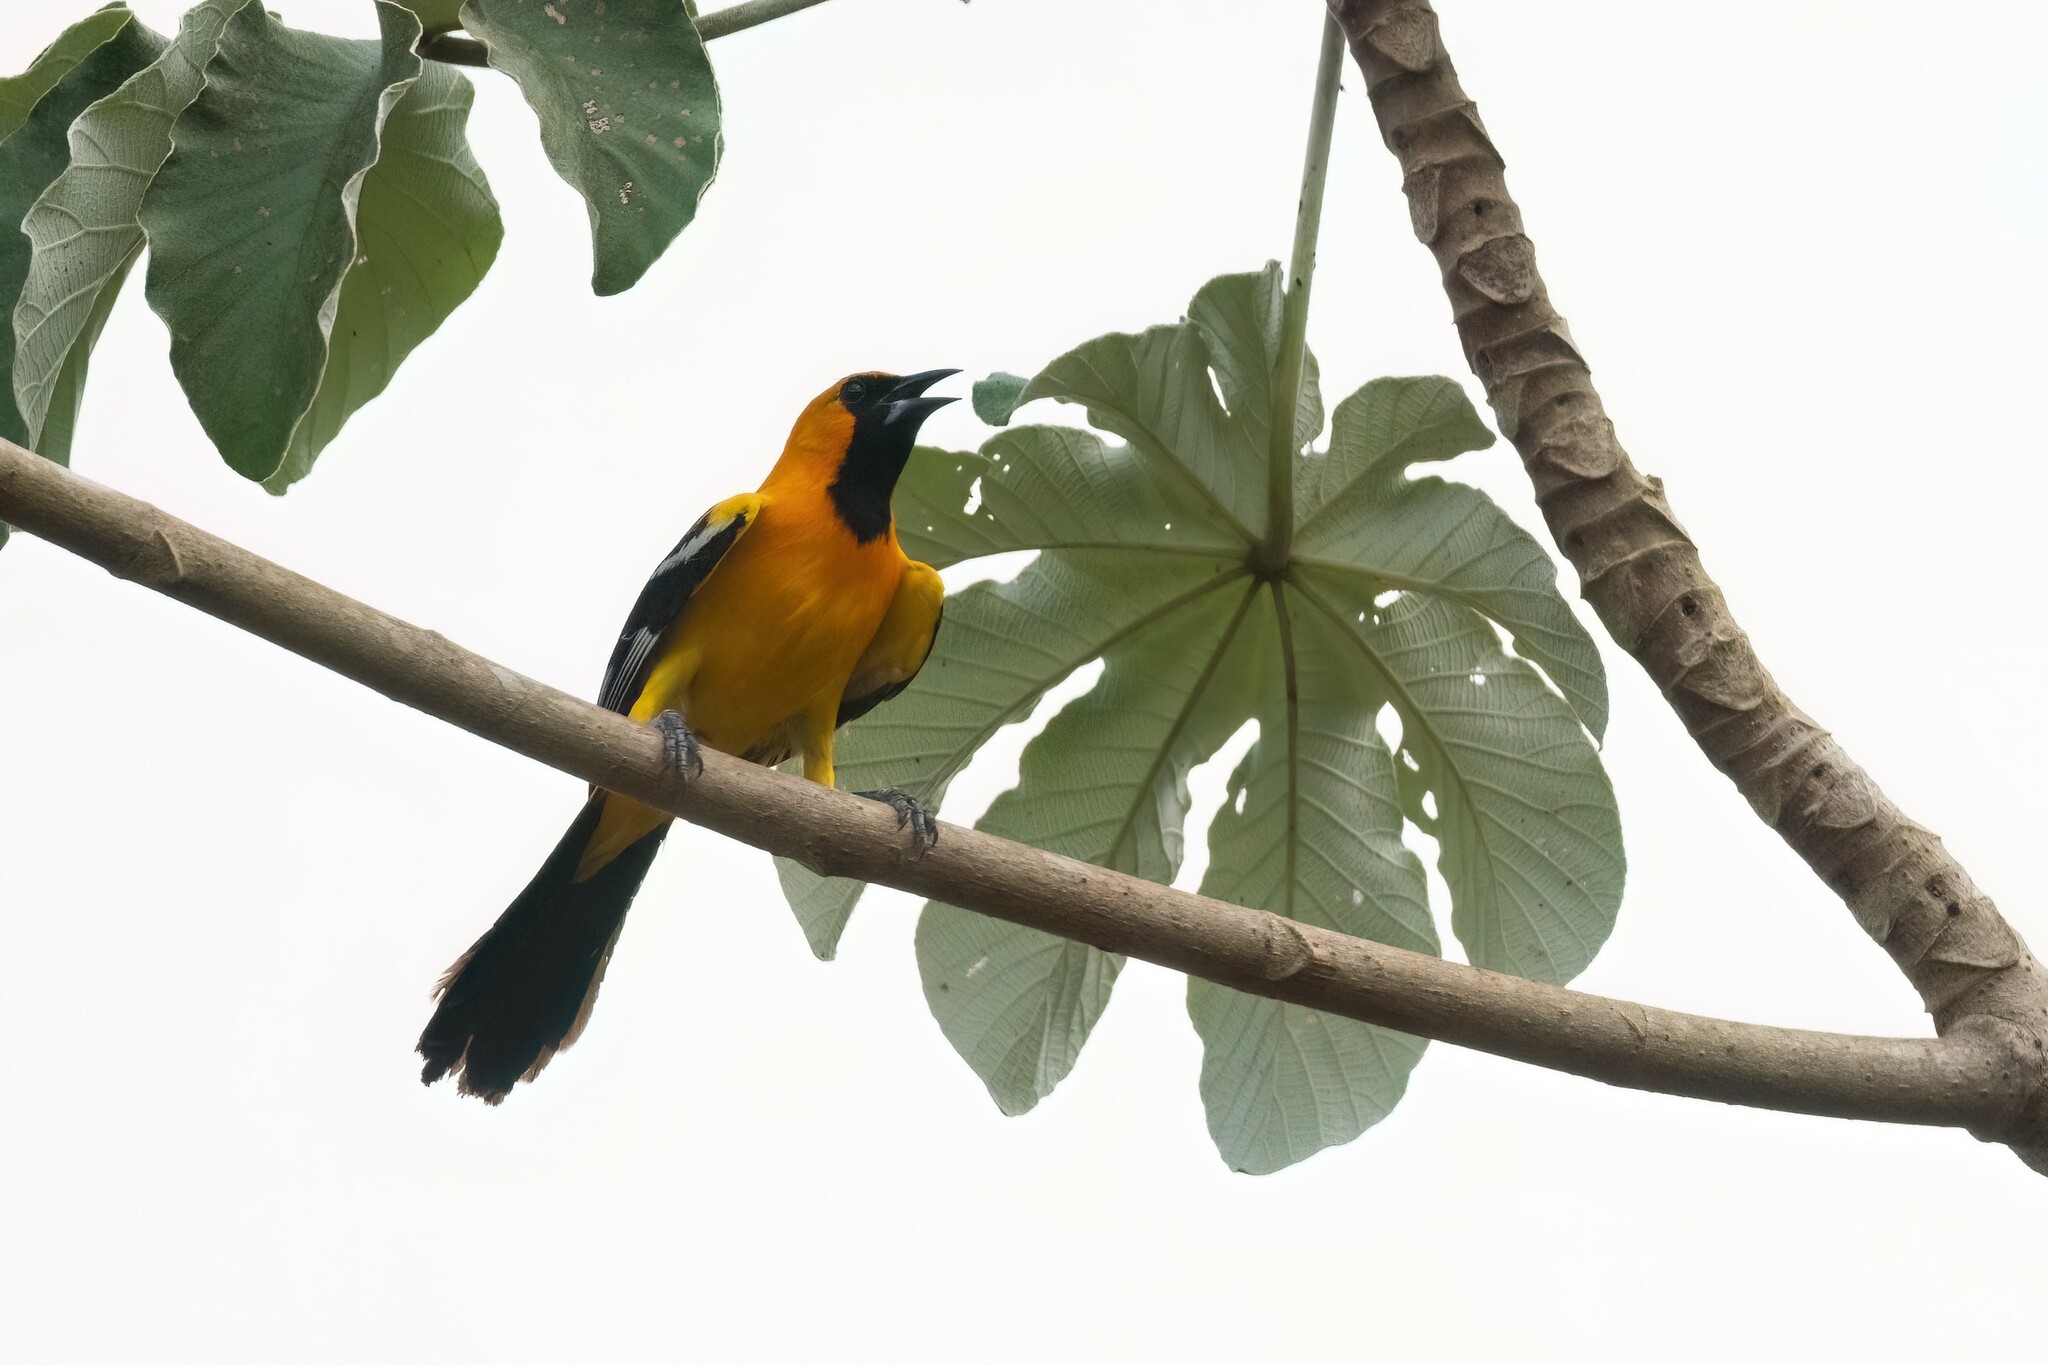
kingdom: Animalia
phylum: Chordata
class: Aves
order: Passeriformes
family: Icteridae
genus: Icterus
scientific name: Icterus auratus
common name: Orange oriole
